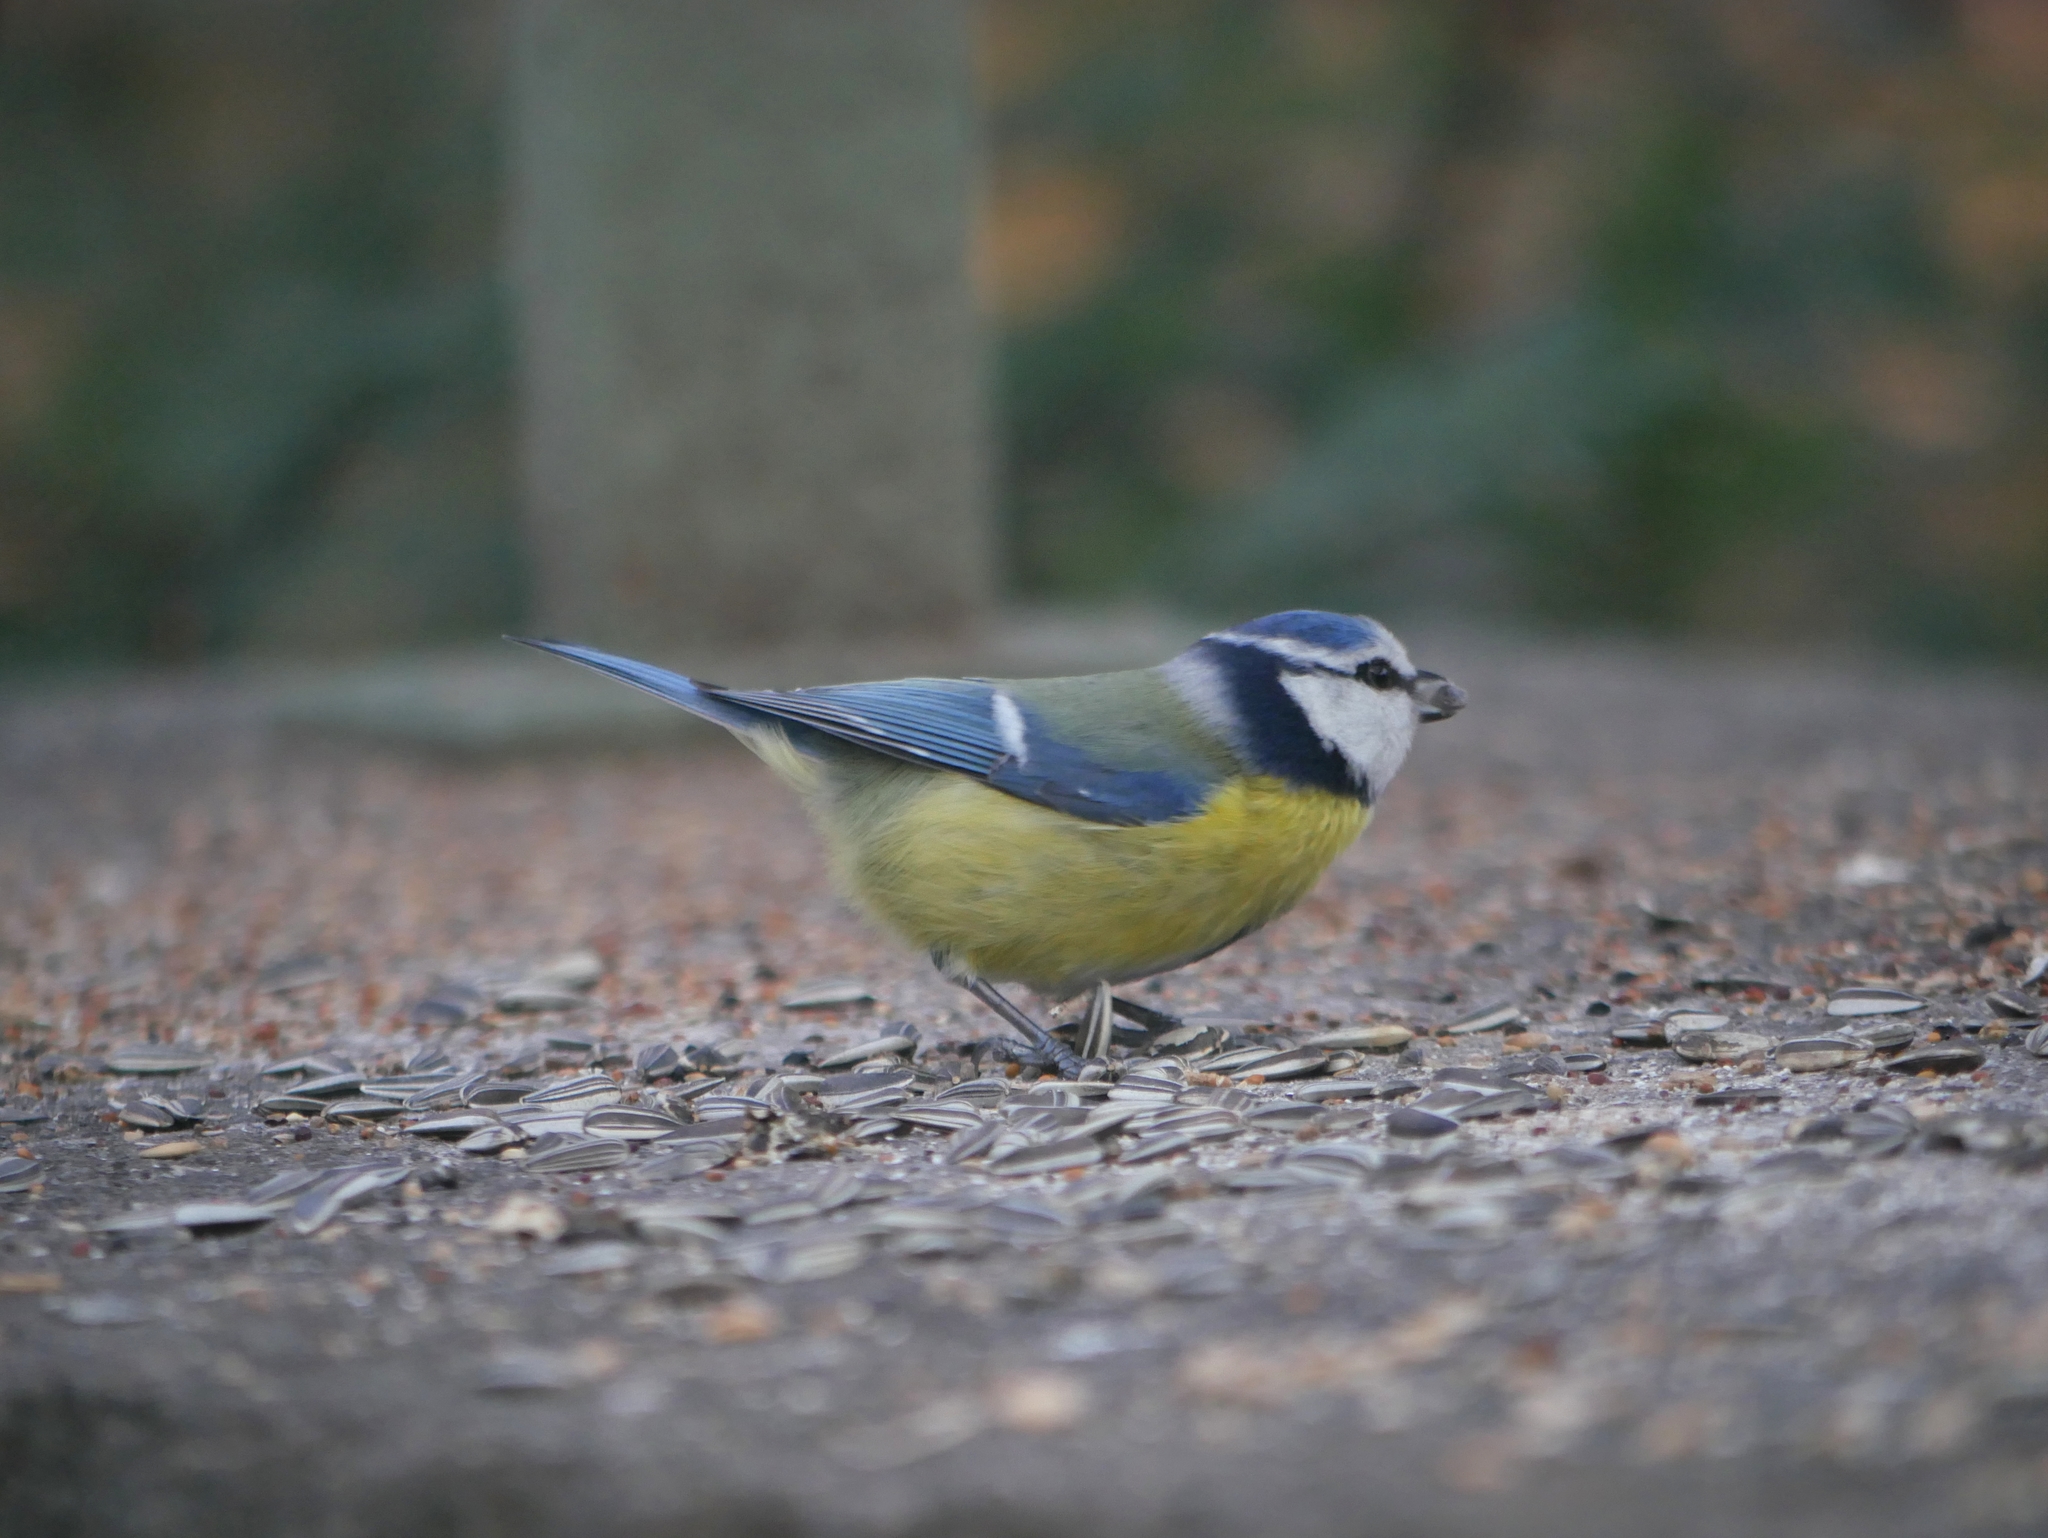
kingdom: Animalia
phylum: Chordata
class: Aves
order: Passeriformes
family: Paridae
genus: Cyanistes
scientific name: Cyanistes caeruleus
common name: Eurasian blue tit
